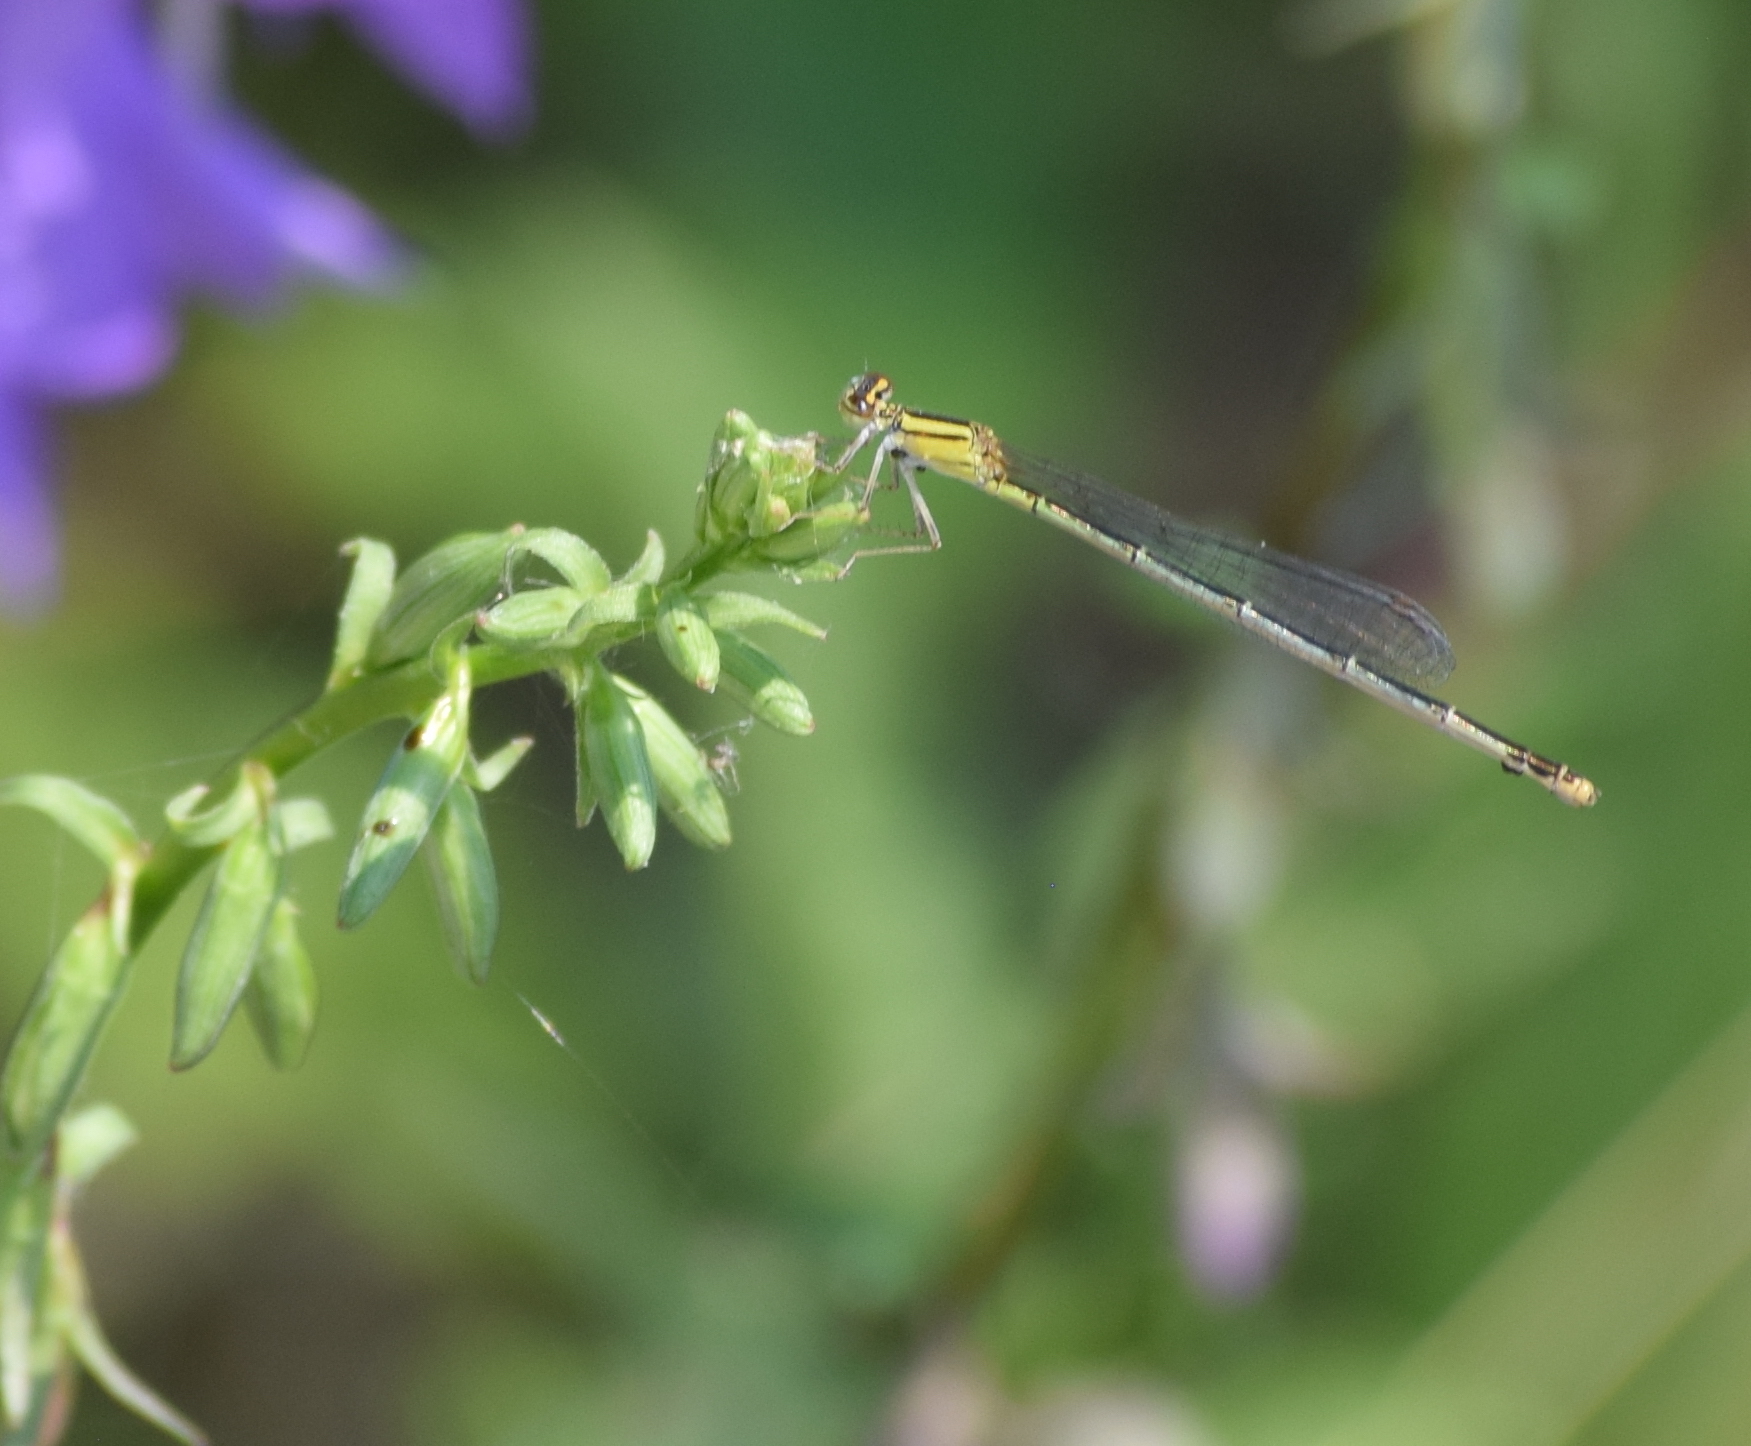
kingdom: Animalia
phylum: Arthropoda
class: Insecta
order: Odonata
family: Coenagrionidae
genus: Enallagma
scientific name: Enallagma signatum
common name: Orange bluet
